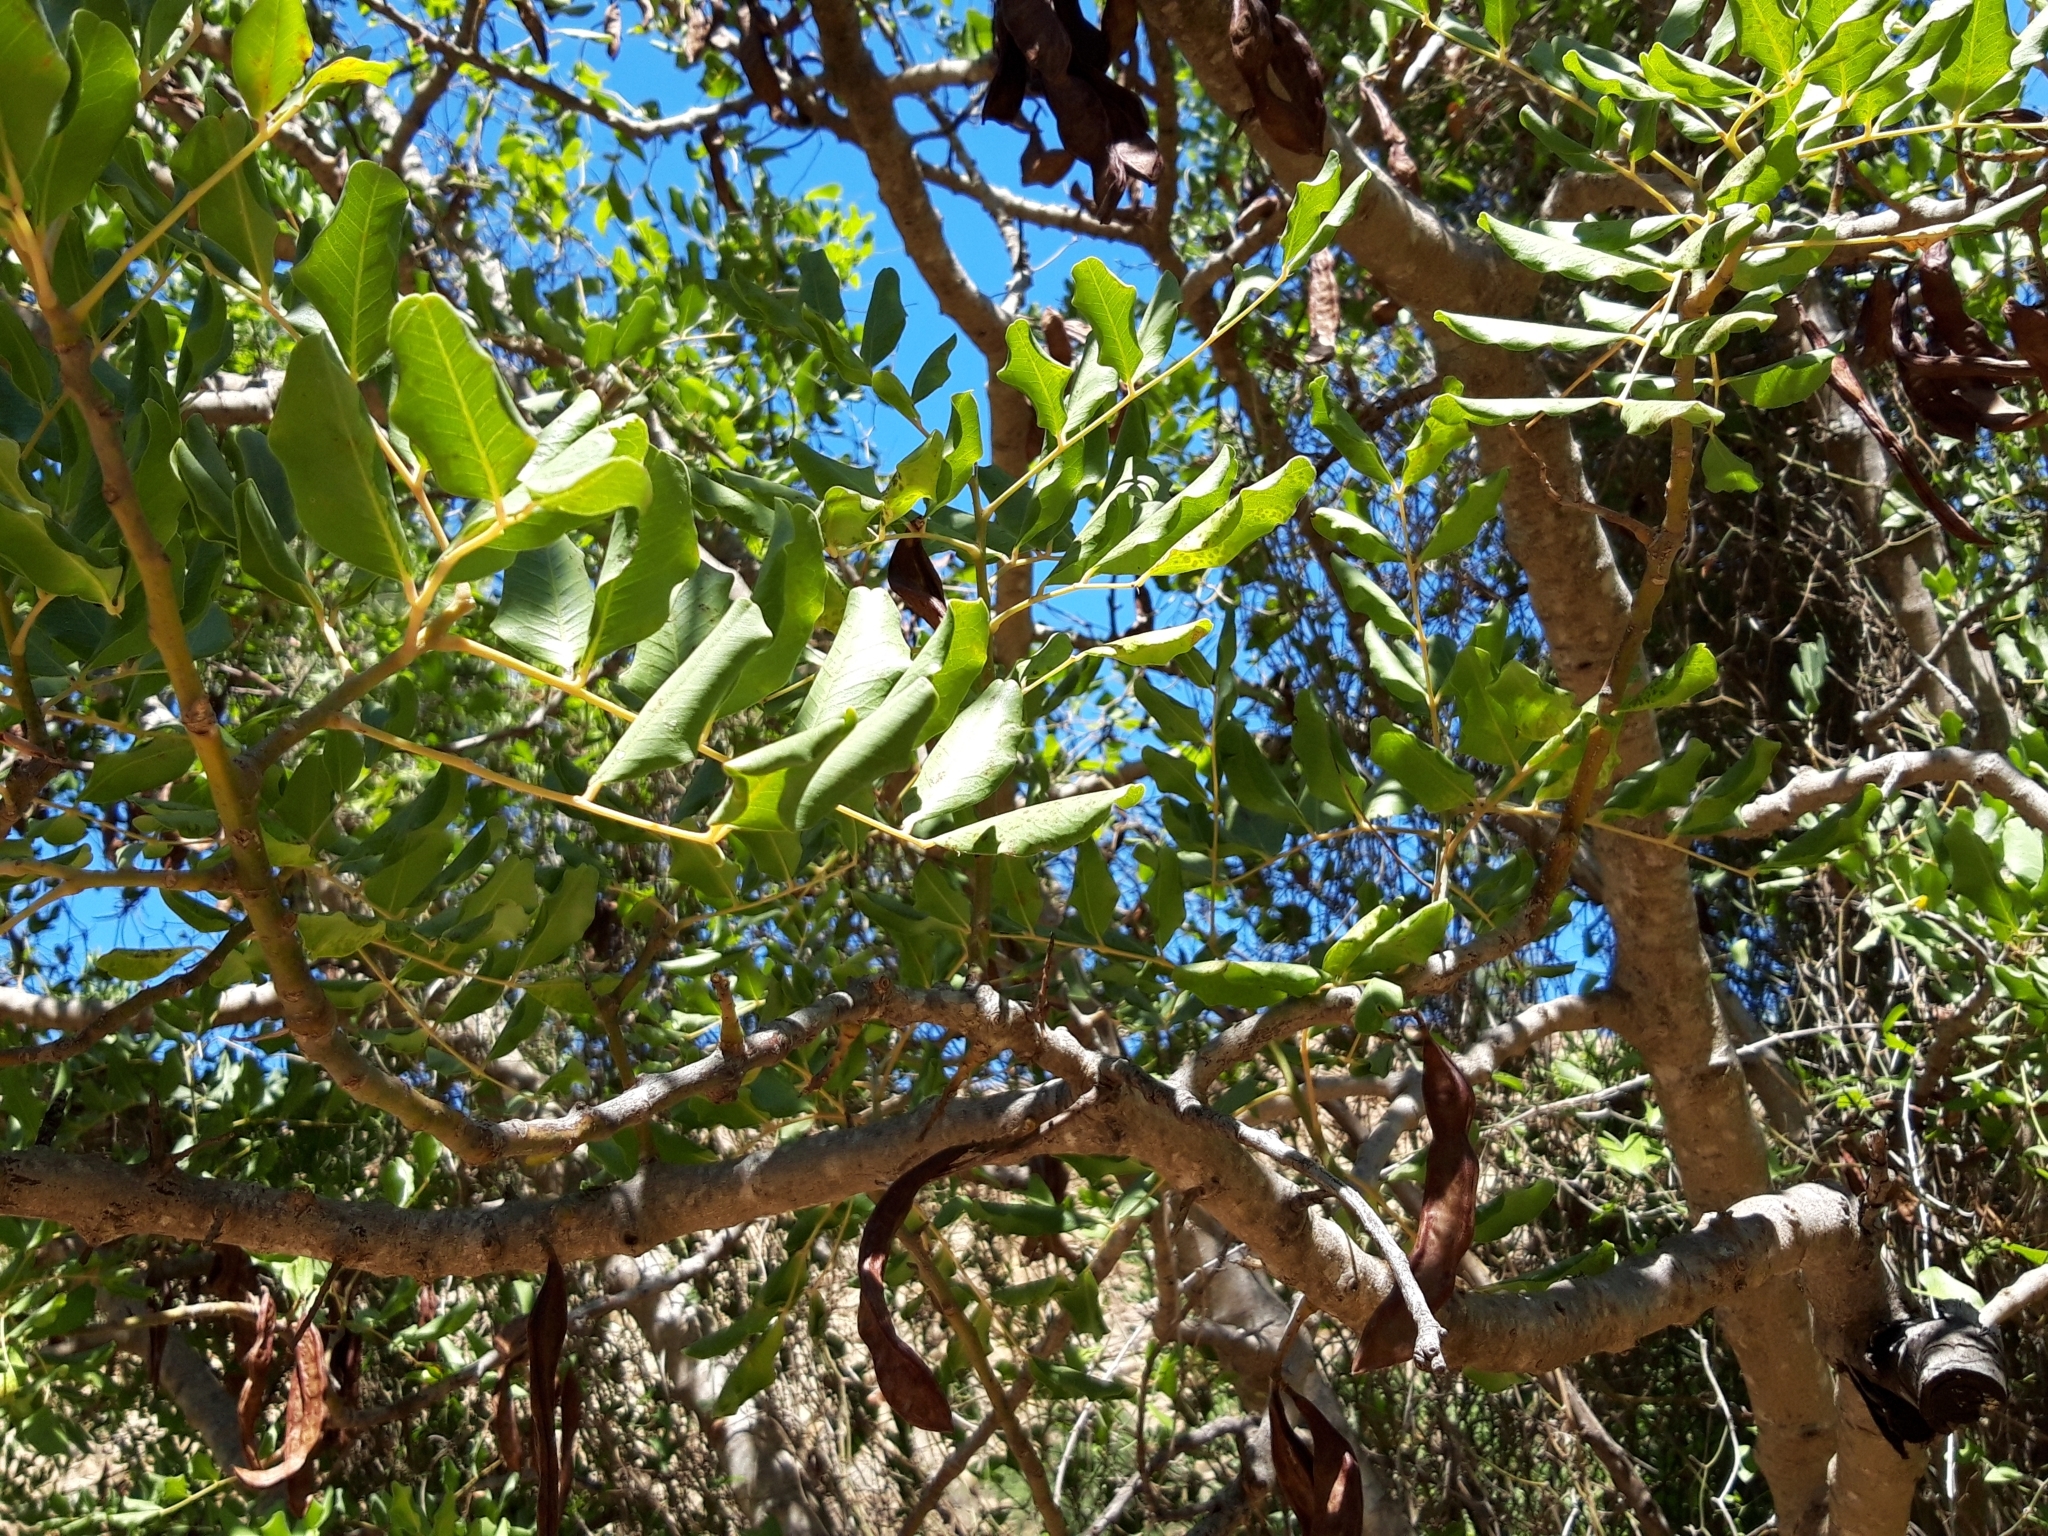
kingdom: Plantae
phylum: Tracheophyta
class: Magnoliopsida
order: Fabales
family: Fabaceae
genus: Ceratonia
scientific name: Ceratonia siliqua
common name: Carob
